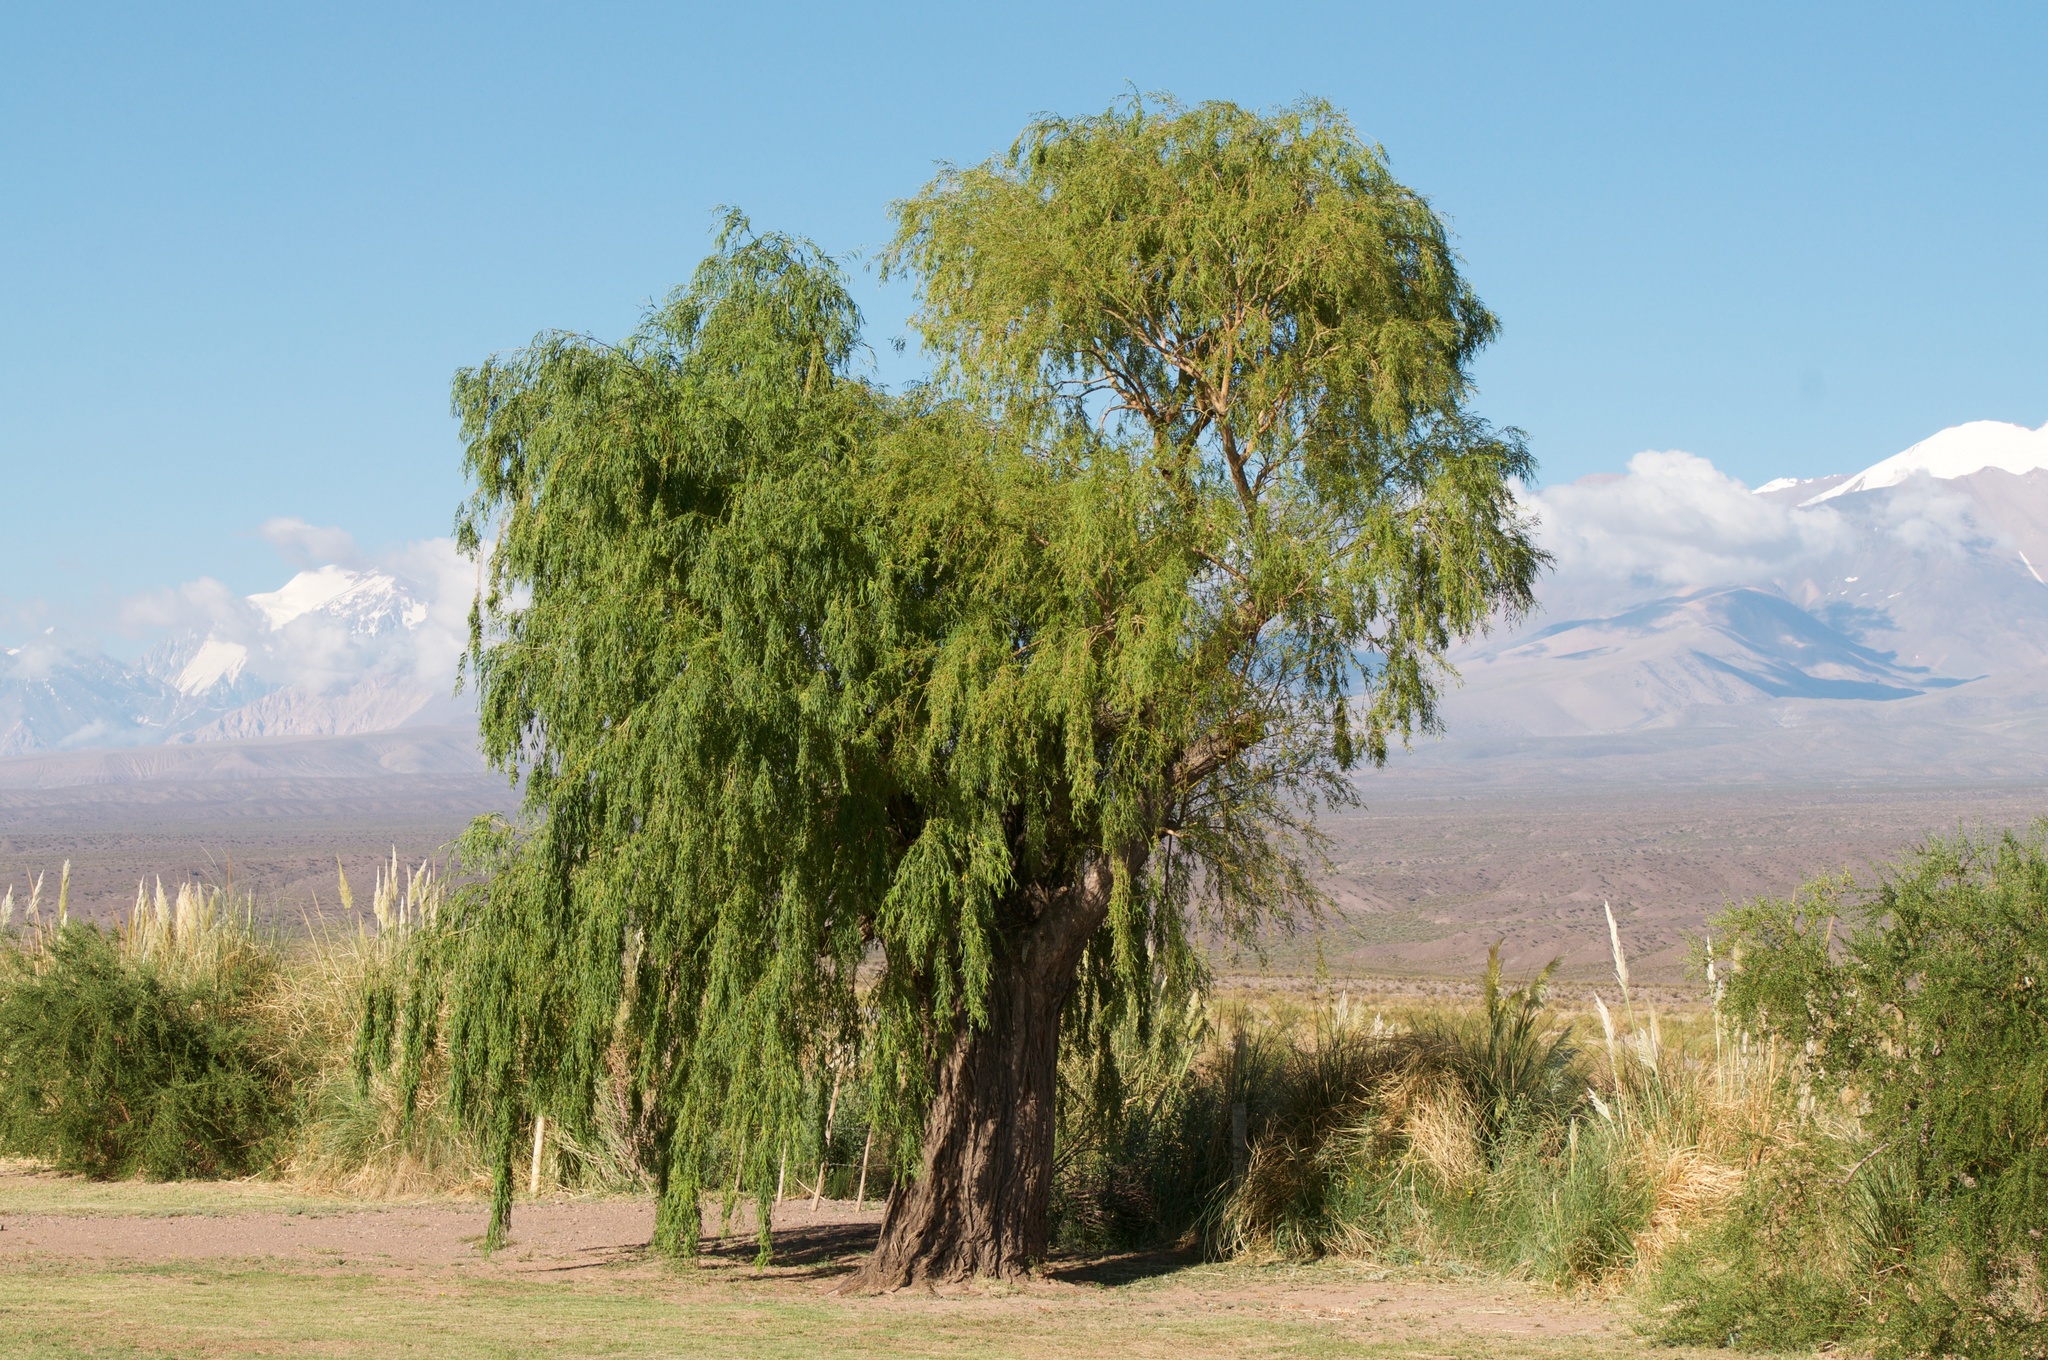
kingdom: Plantae
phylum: Tracheophyta
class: Magnoliopsida
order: Malpighiales
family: Salicaceae
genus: Salix
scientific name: Salix humboldtiana
